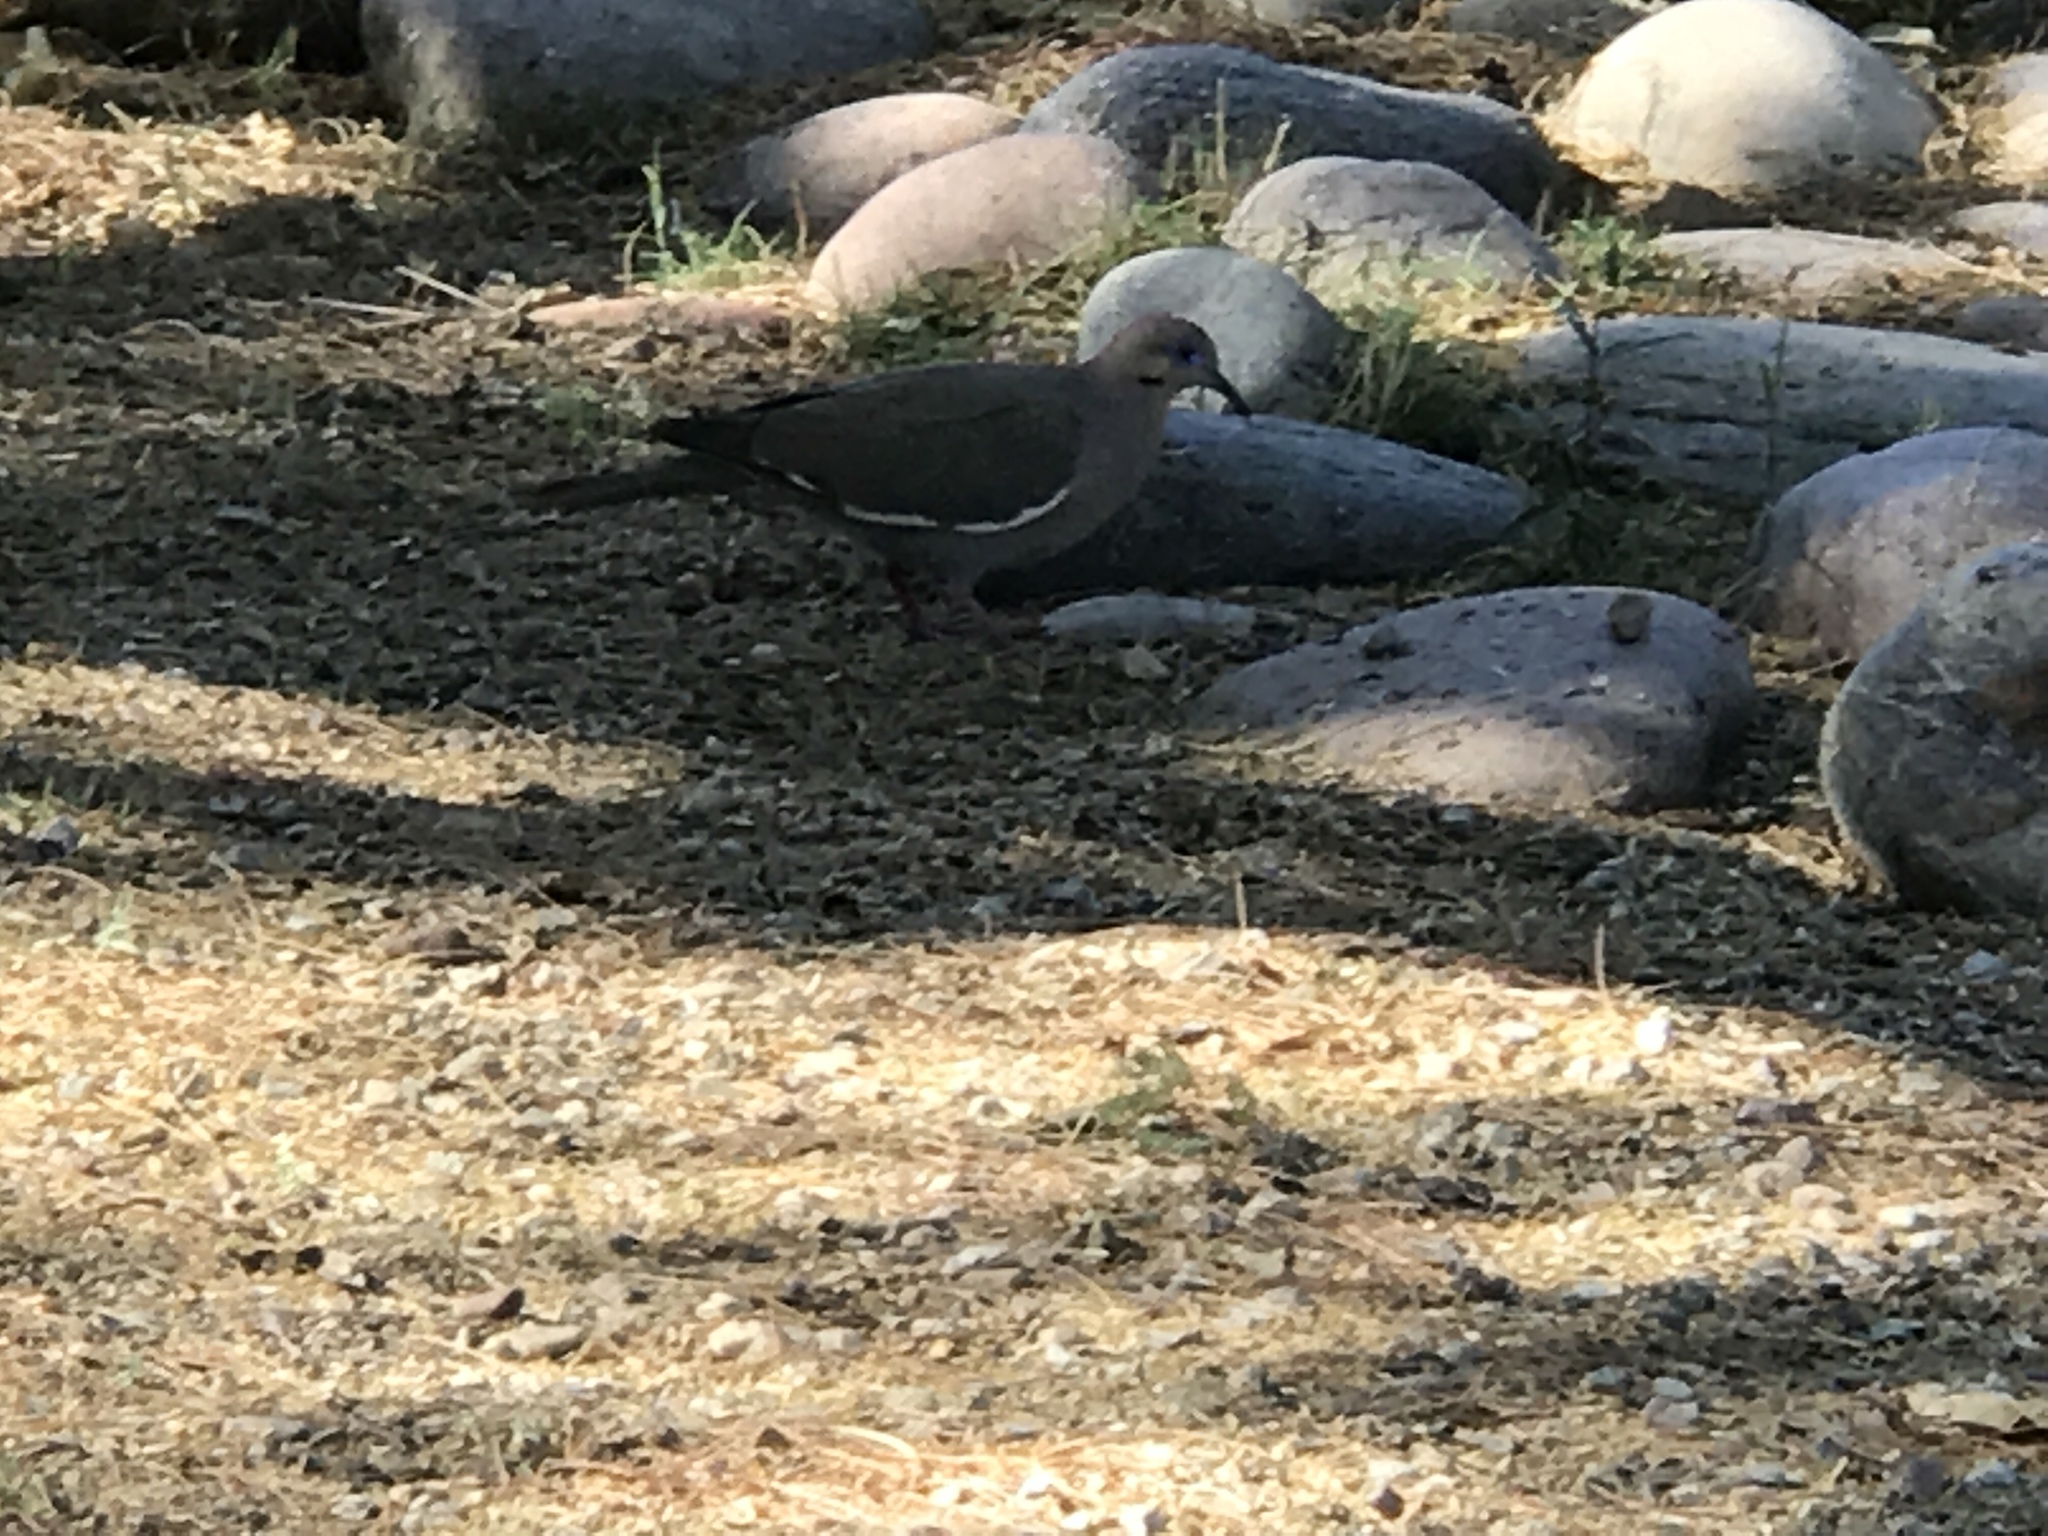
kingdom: Animalia
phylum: Chordata
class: Aves
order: Columbiformes
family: Columbidae
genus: Zenaida
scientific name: Zenaida asiatica
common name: White-winged dove
